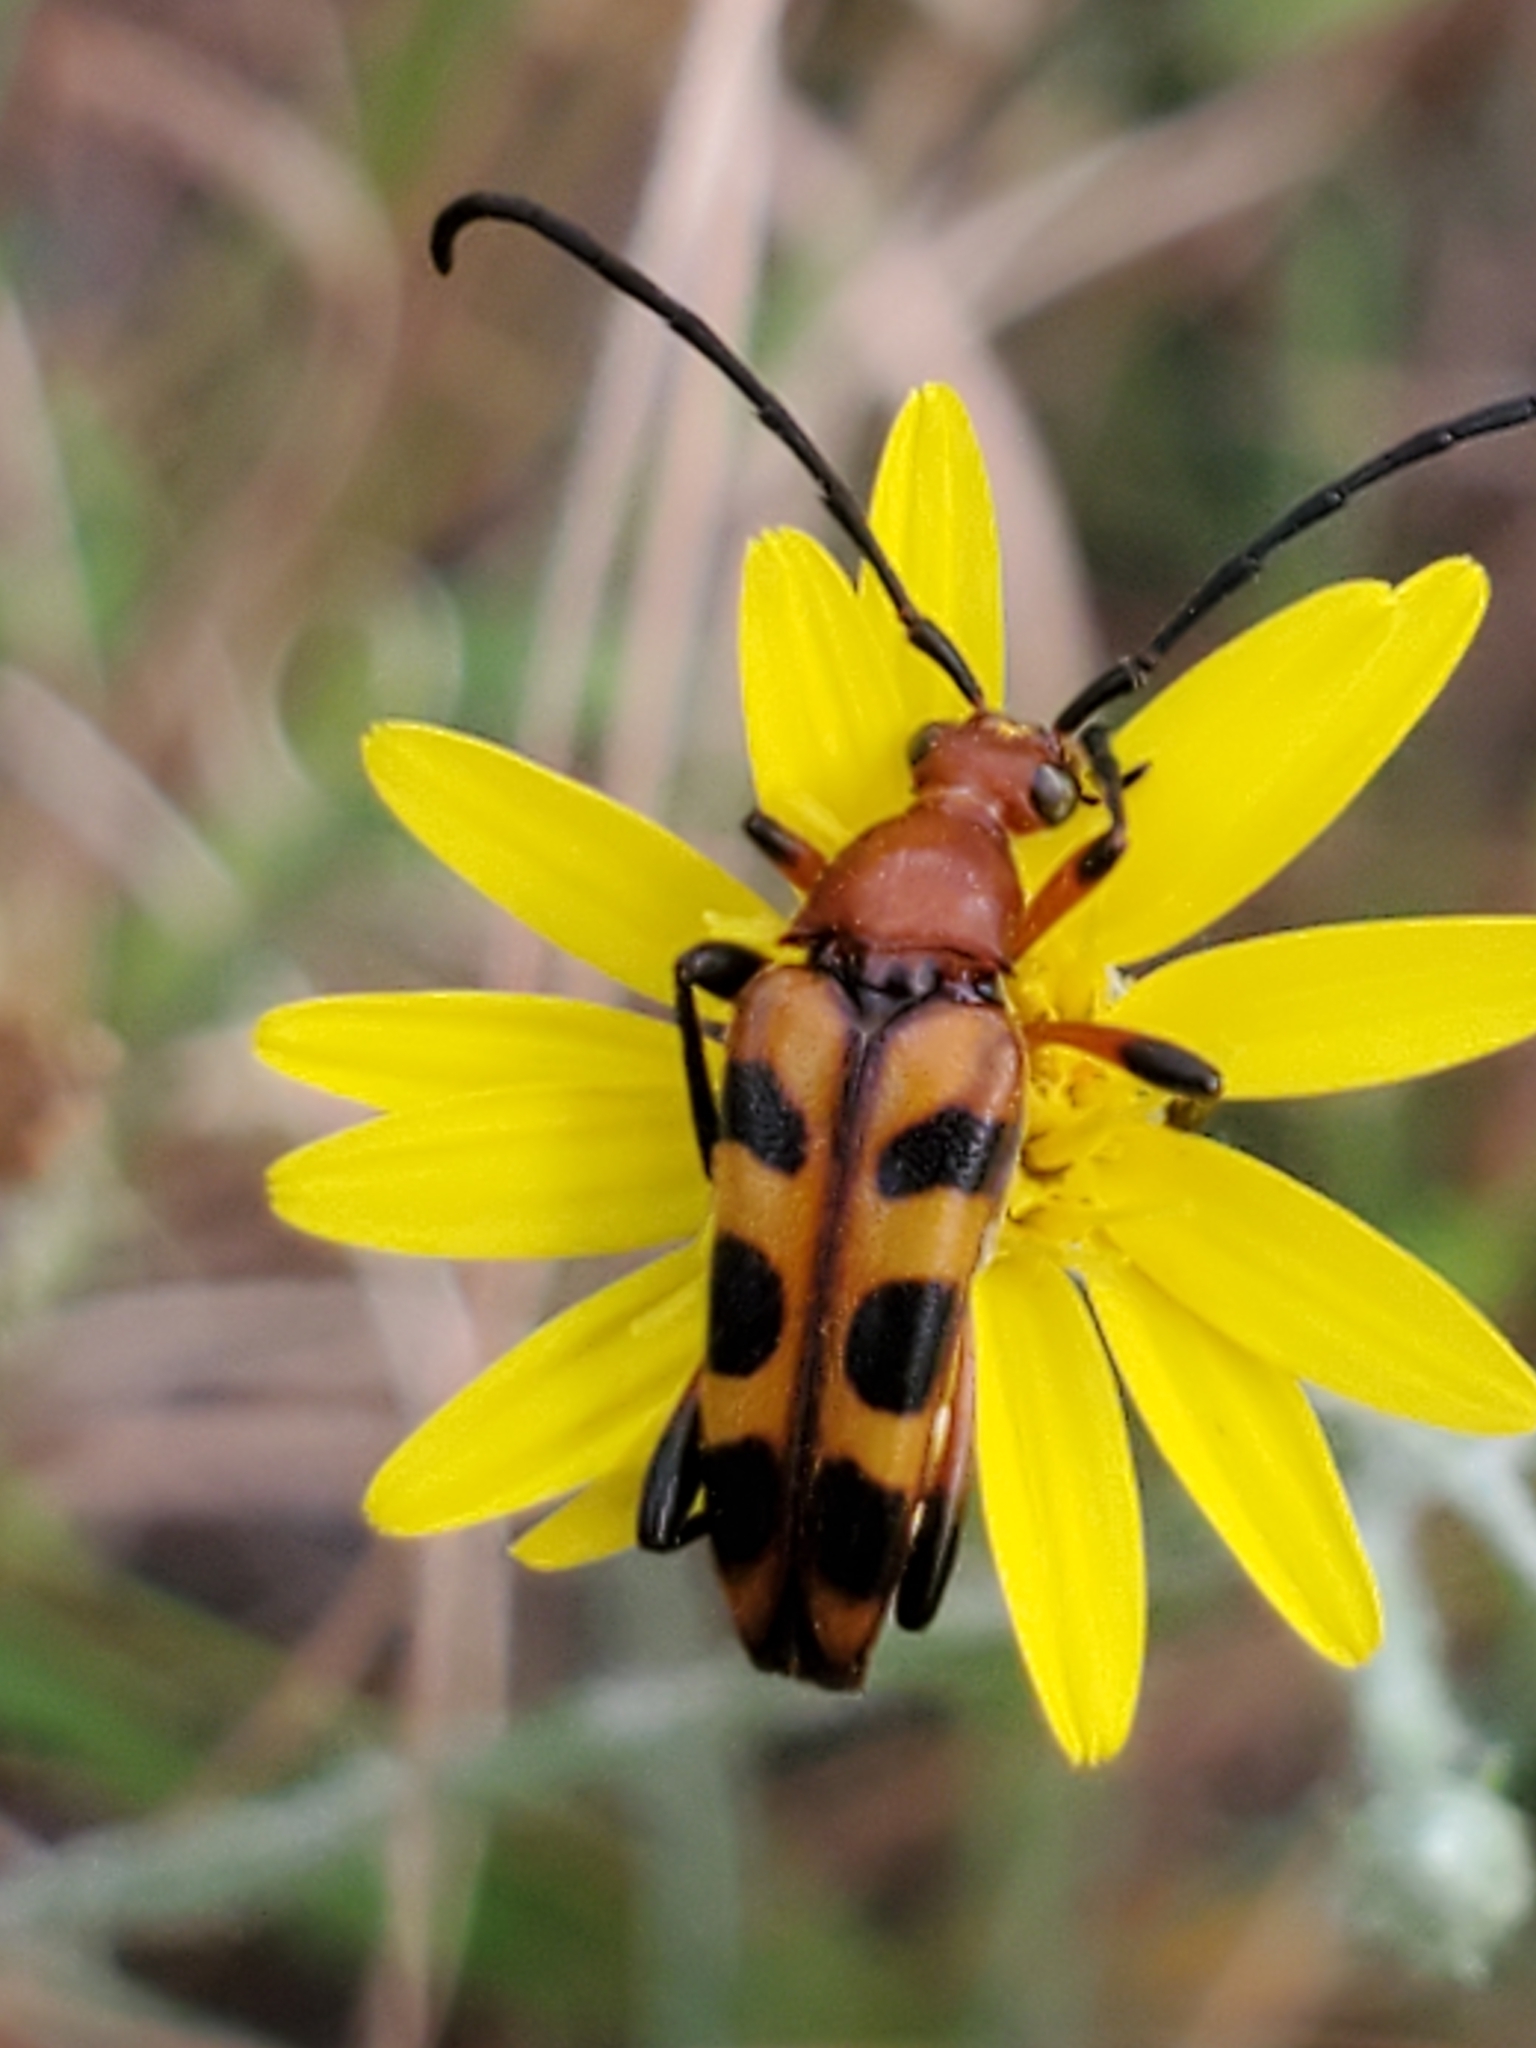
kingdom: Animalia
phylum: Arthropoda
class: Insecta
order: Coleoptera
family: Cerambycidae
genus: Strangalia
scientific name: Strangalia sexnotata
